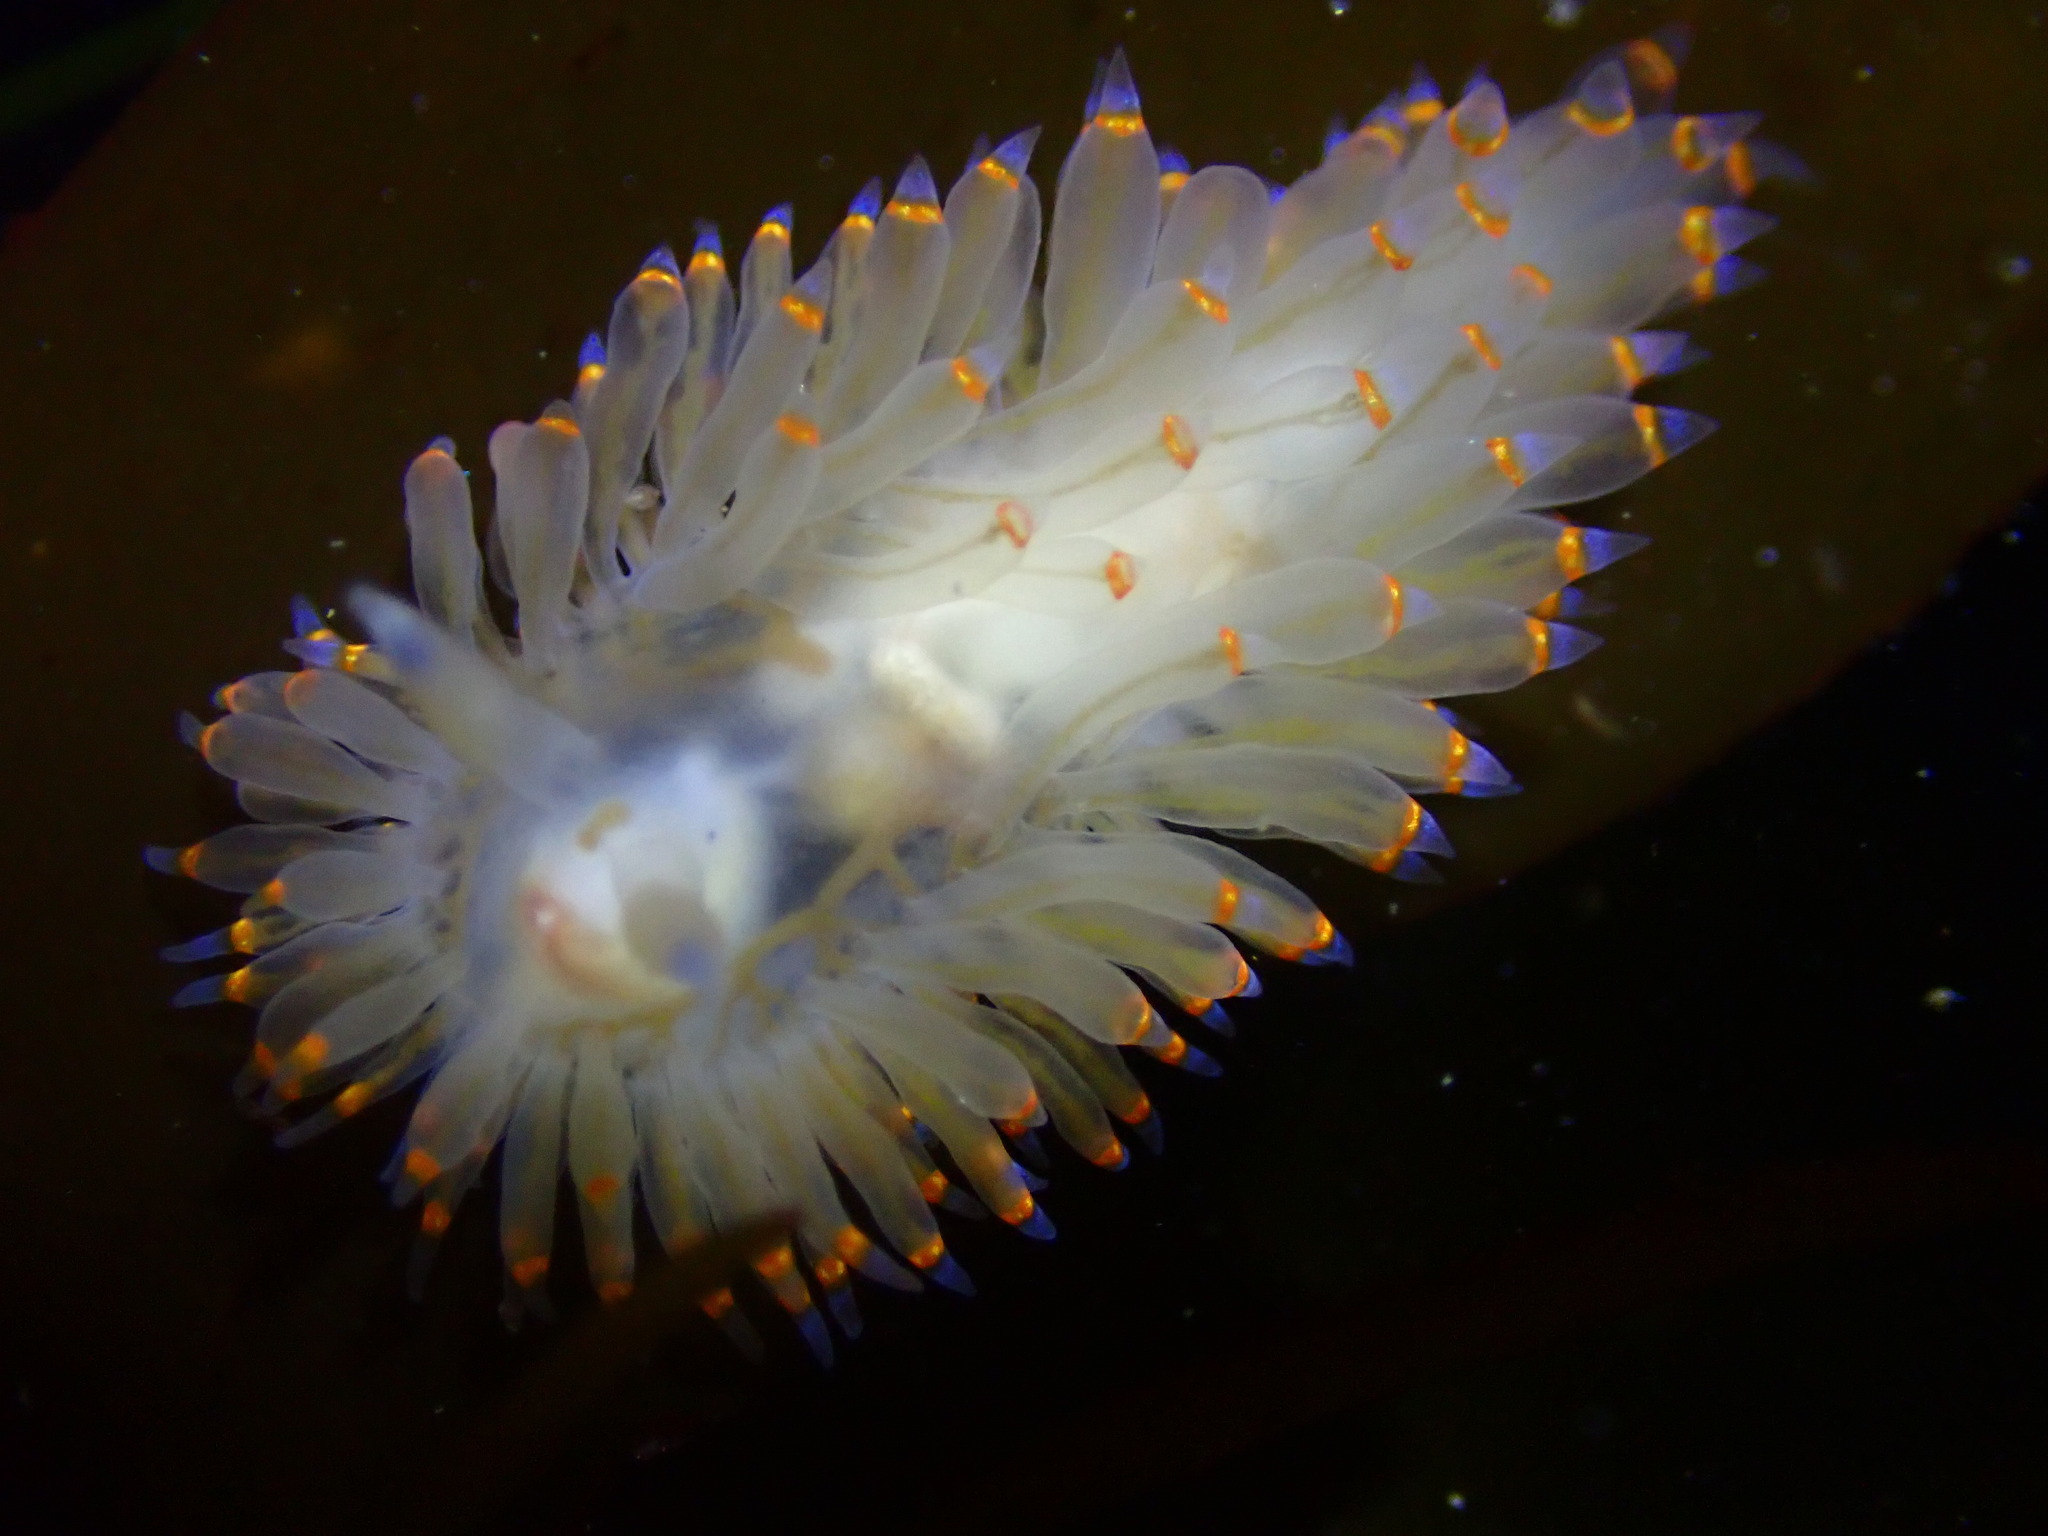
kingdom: Animalia
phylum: Mollusca
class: Gastropoda
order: Nudibranchia
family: Janolidae
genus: Antiopella
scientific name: Antiopella barbarensis
